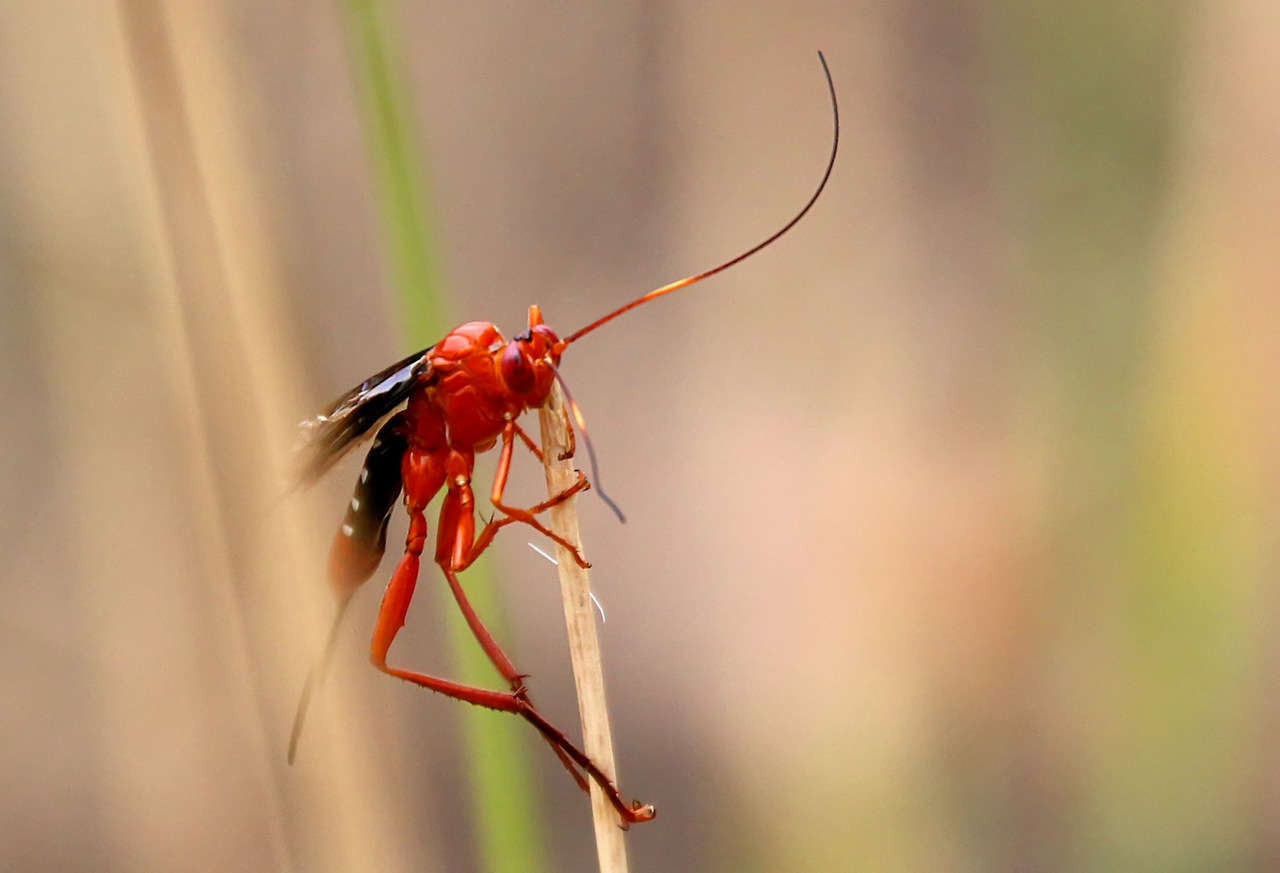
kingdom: Animalia
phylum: Arthropoda
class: Insecta
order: Hymenoptera
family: Ichneumonidae
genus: Lissopimpla
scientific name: Lissopimpla excelsa
